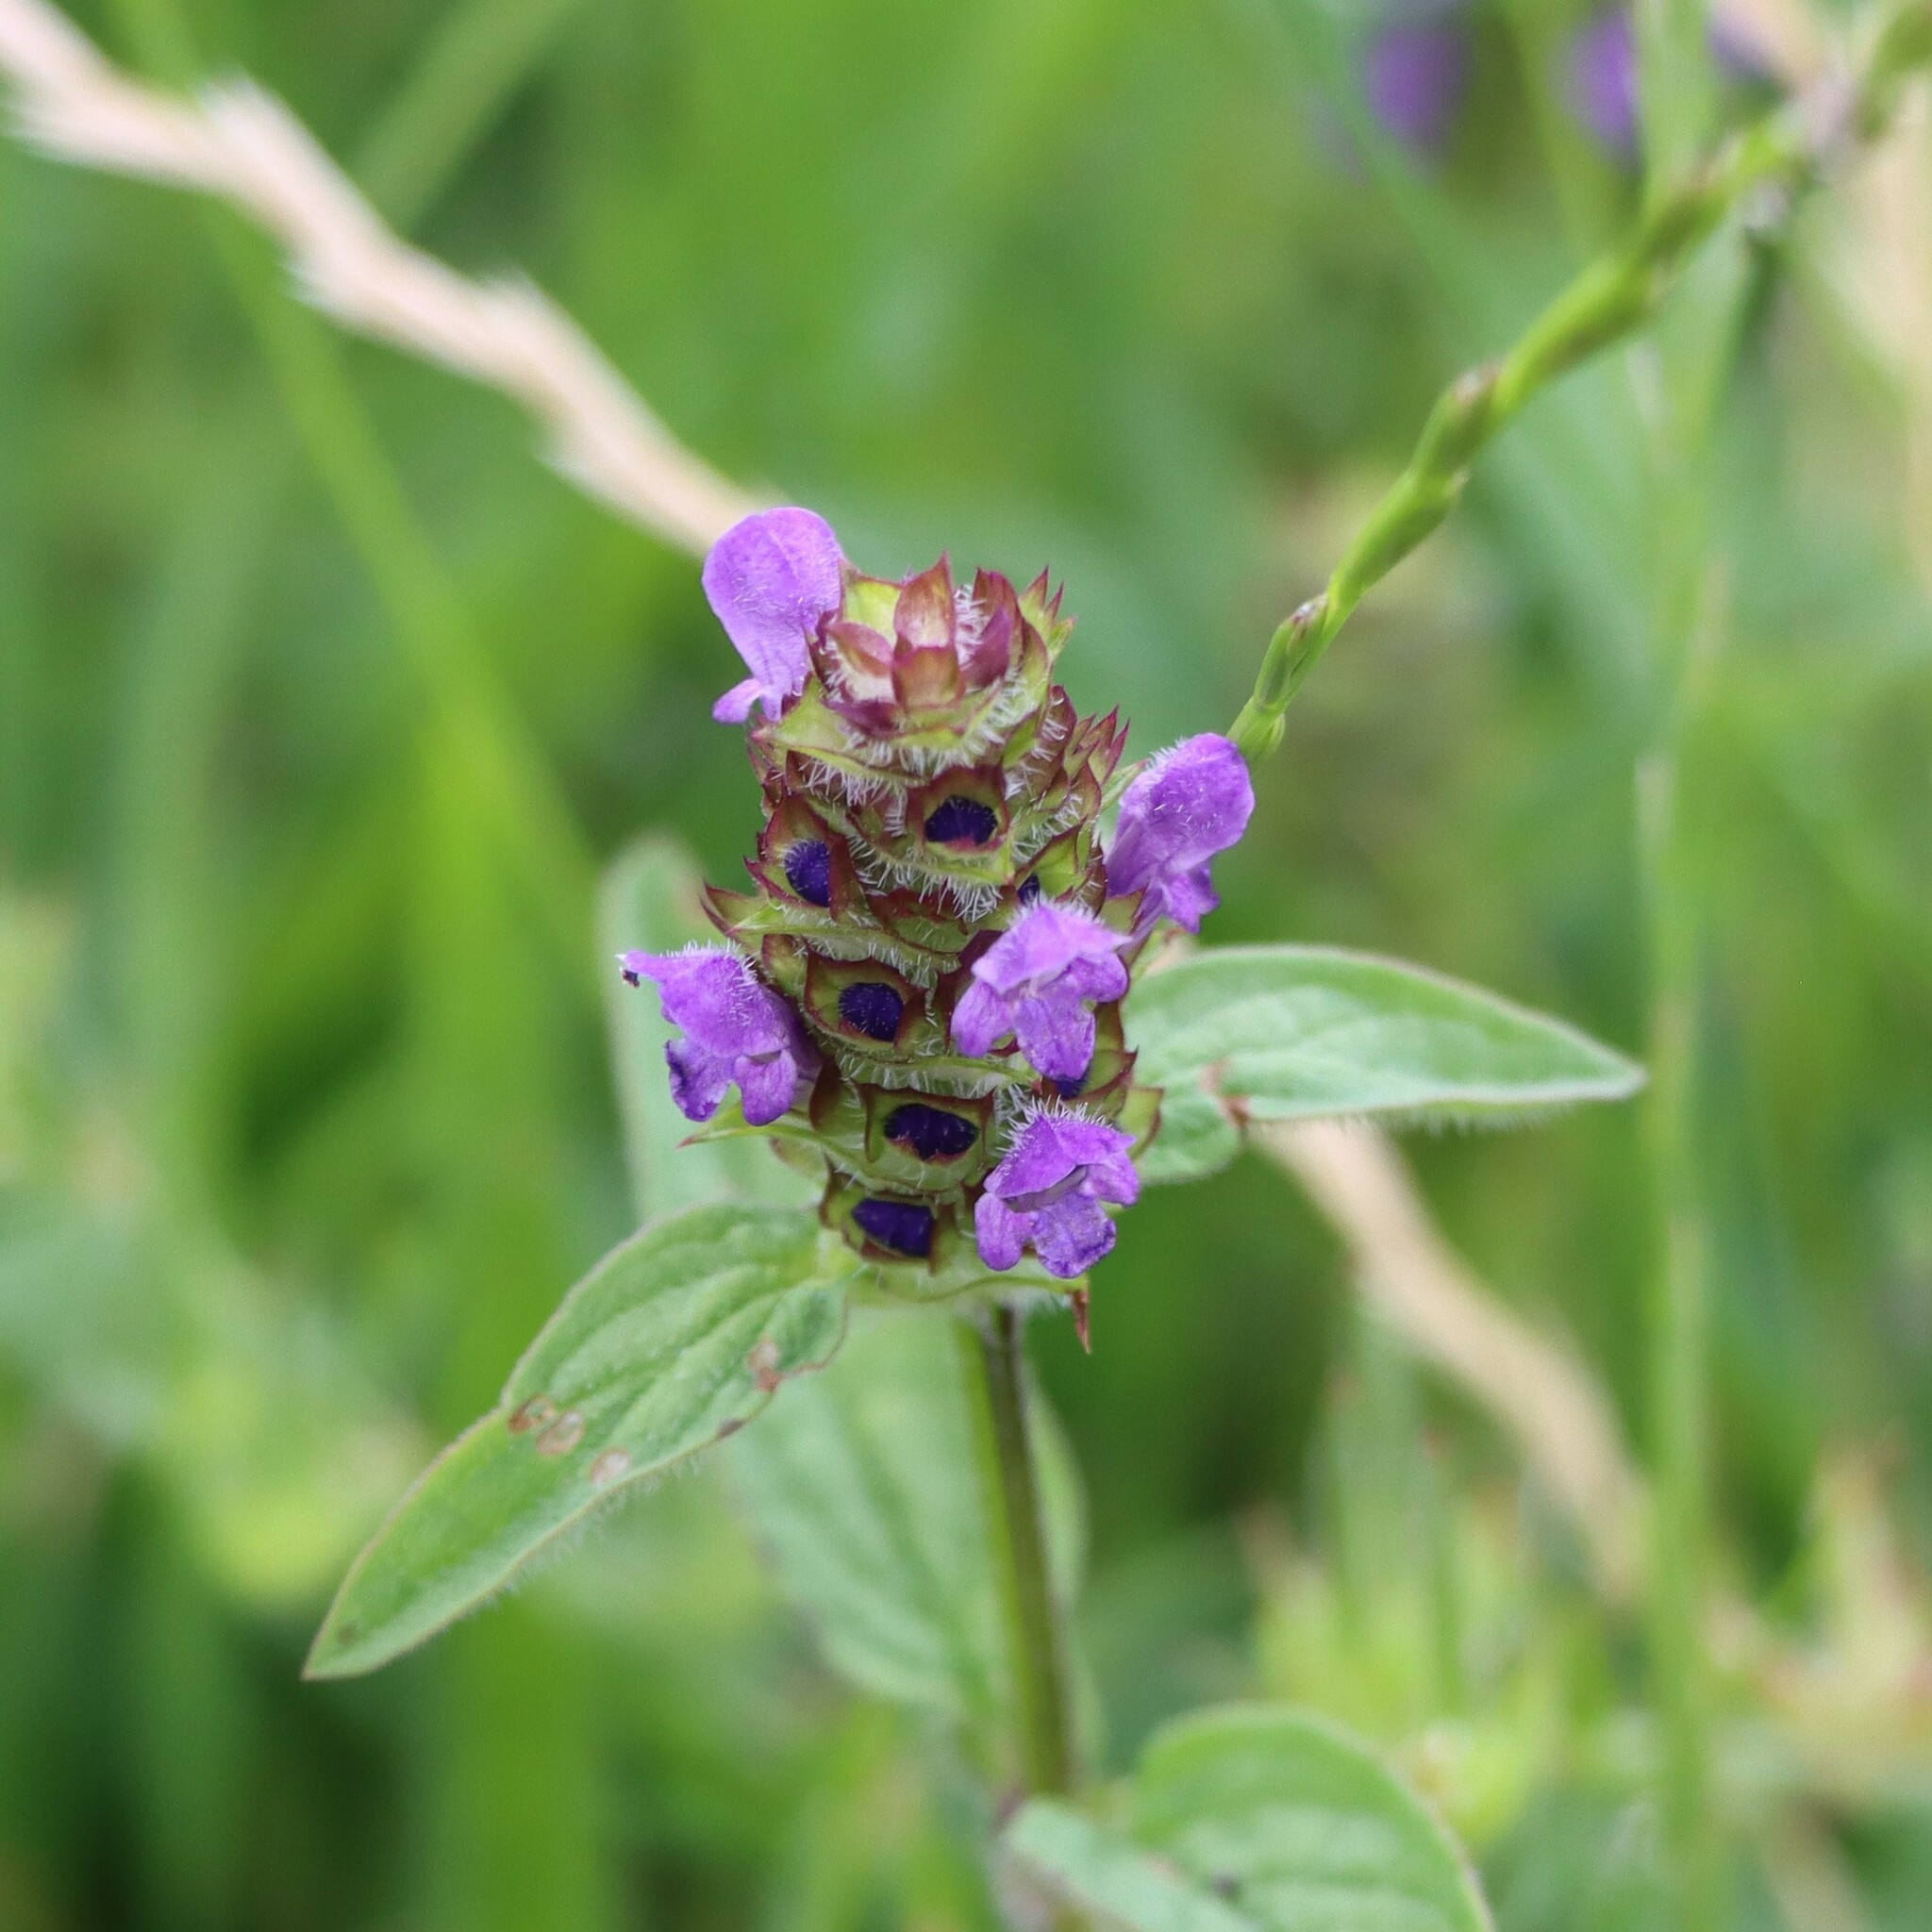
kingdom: Plantae
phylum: Tracheophyta
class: Magnoliopsida
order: Lamiales
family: Lamiaceae
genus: Prunella
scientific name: Prunella vulgaris
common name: Heal-all
